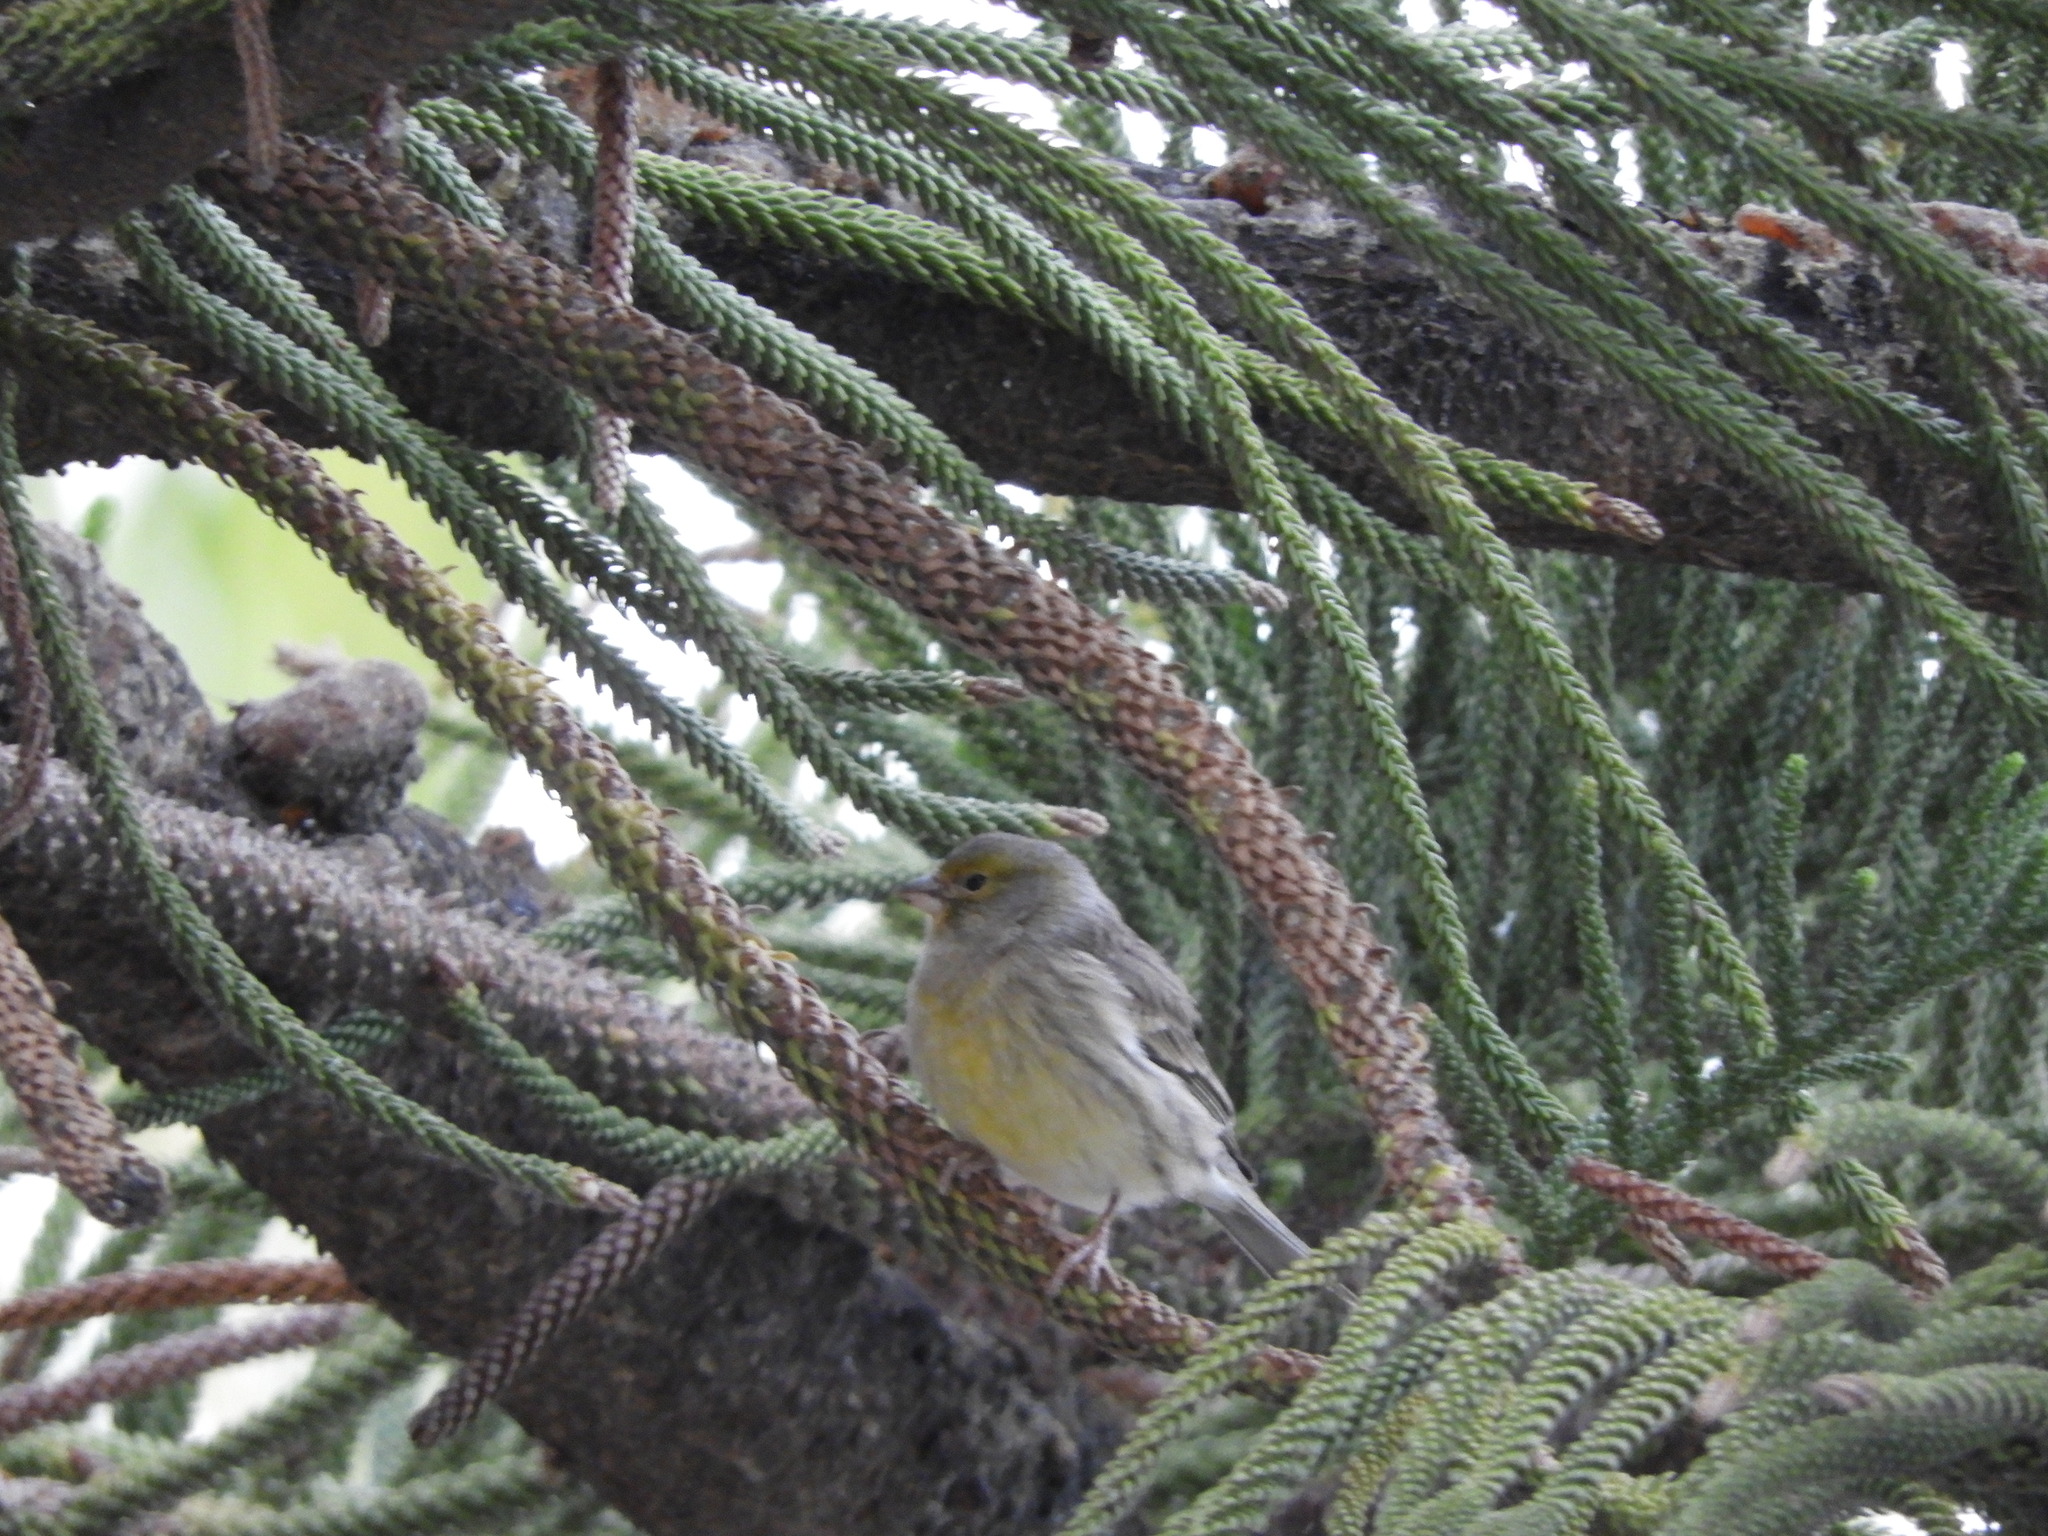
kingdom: Animalia
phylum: Chordata
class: Aves
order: Passeriformes
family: Fringillidae
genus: Serinus
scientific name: Serinus canaria
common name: Atlantic canary
